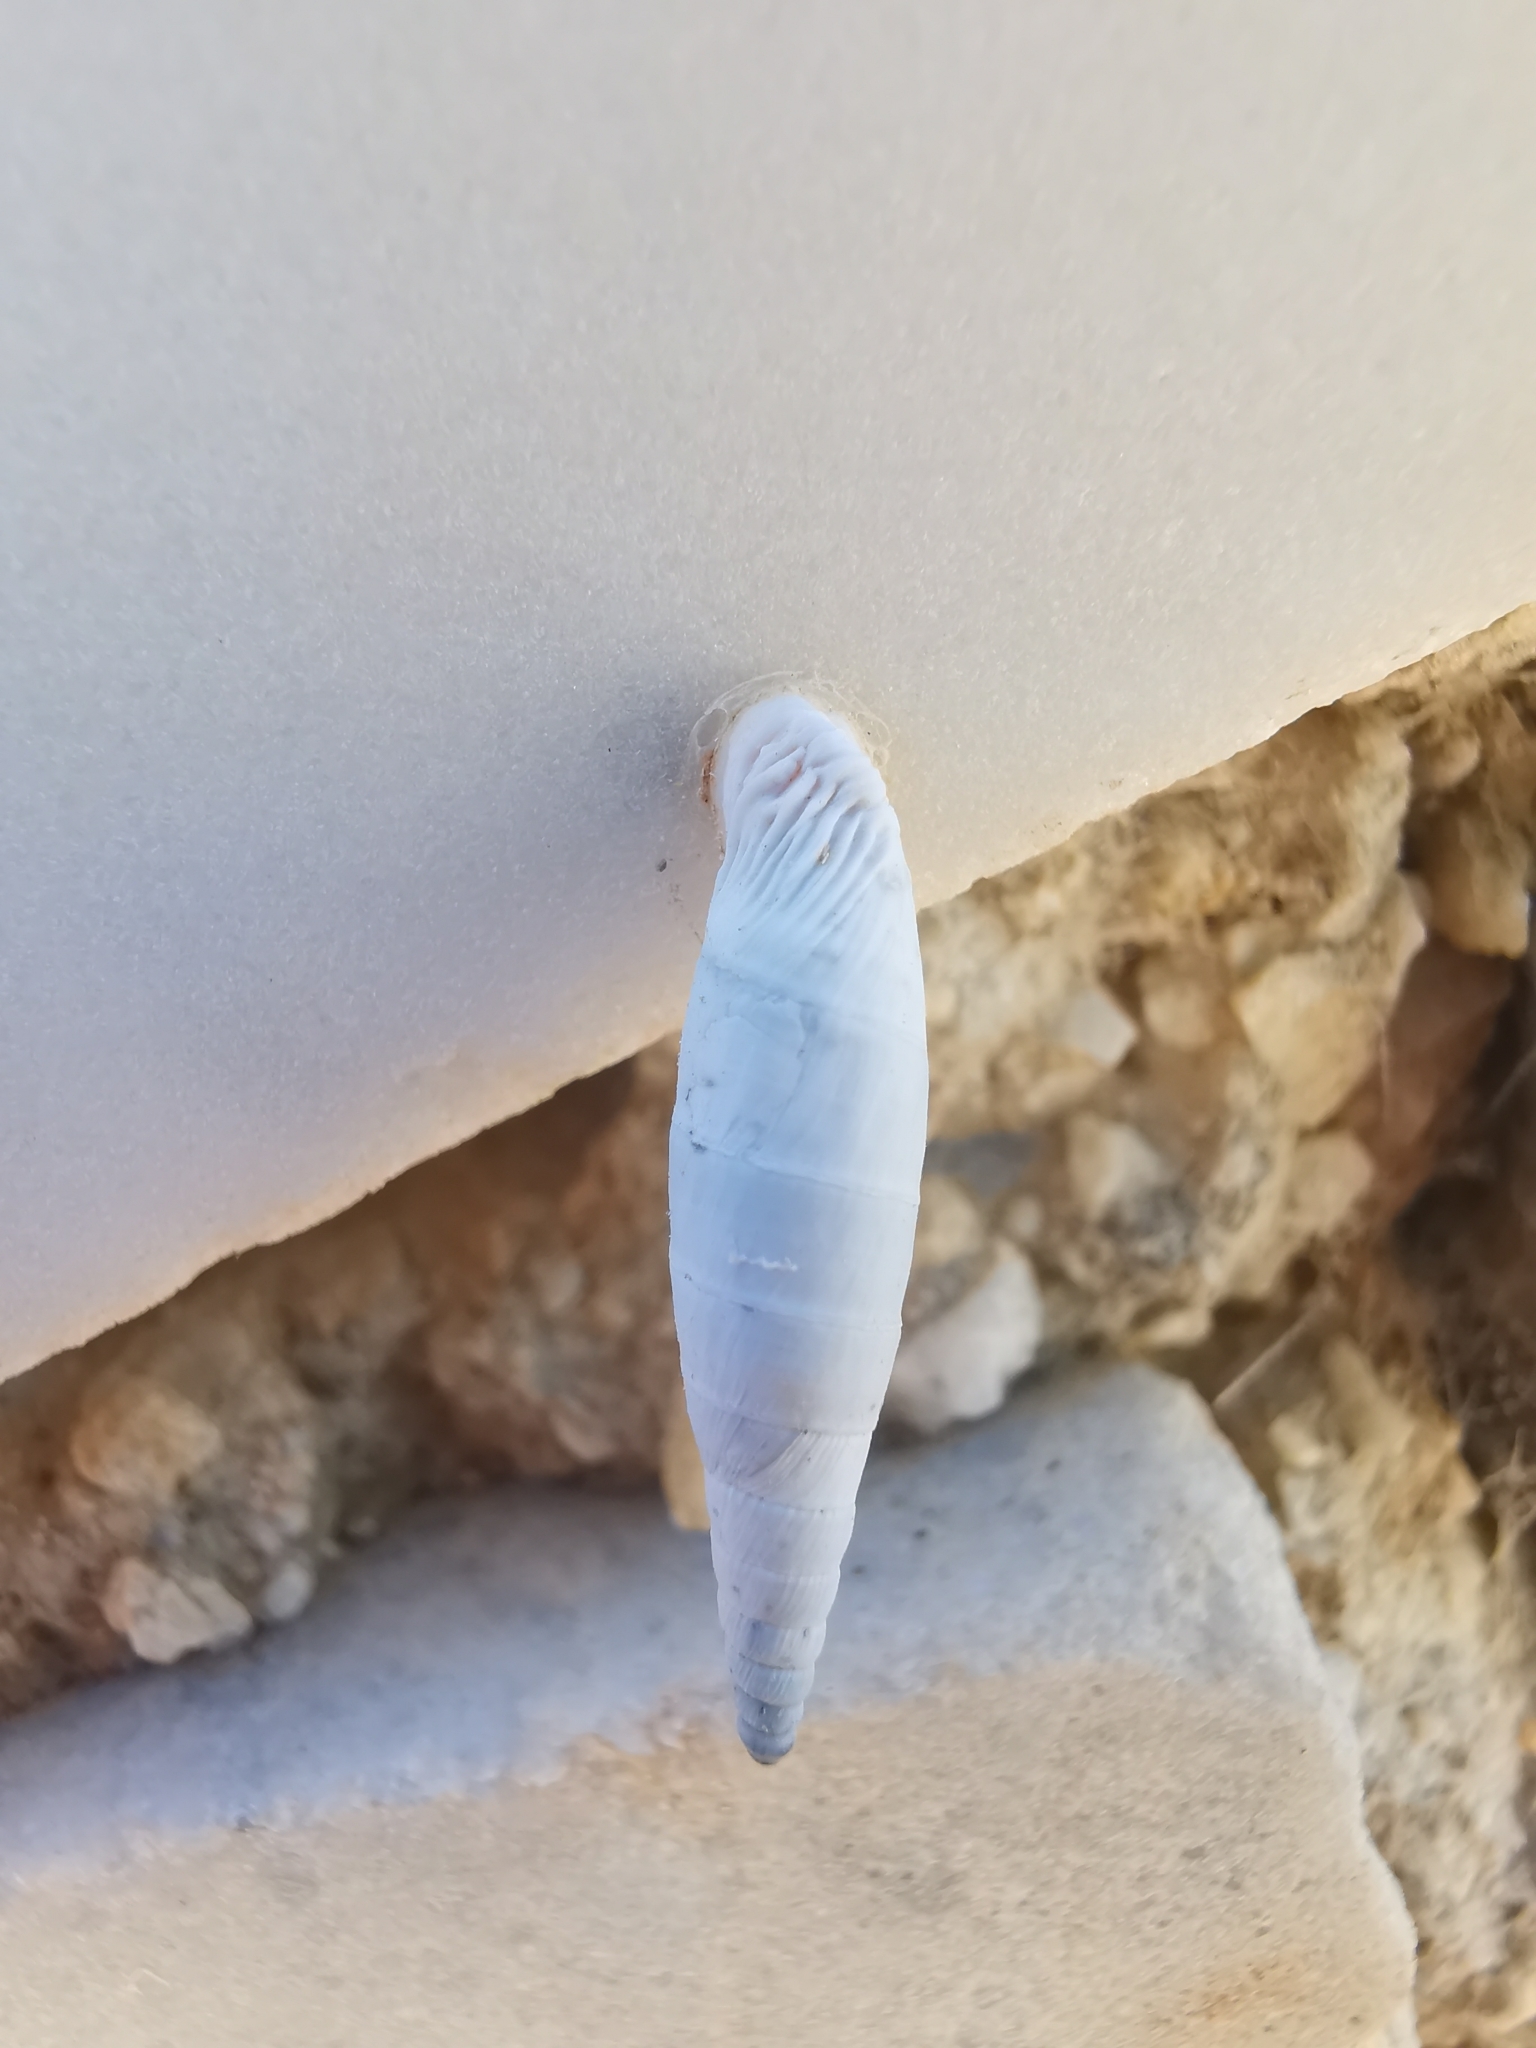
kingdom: Animalia
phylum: Mollusca
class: Gastropoda
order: Stylommatophora
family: Clausiliidae
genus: Albinaria
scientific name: Albinaria caerulea
